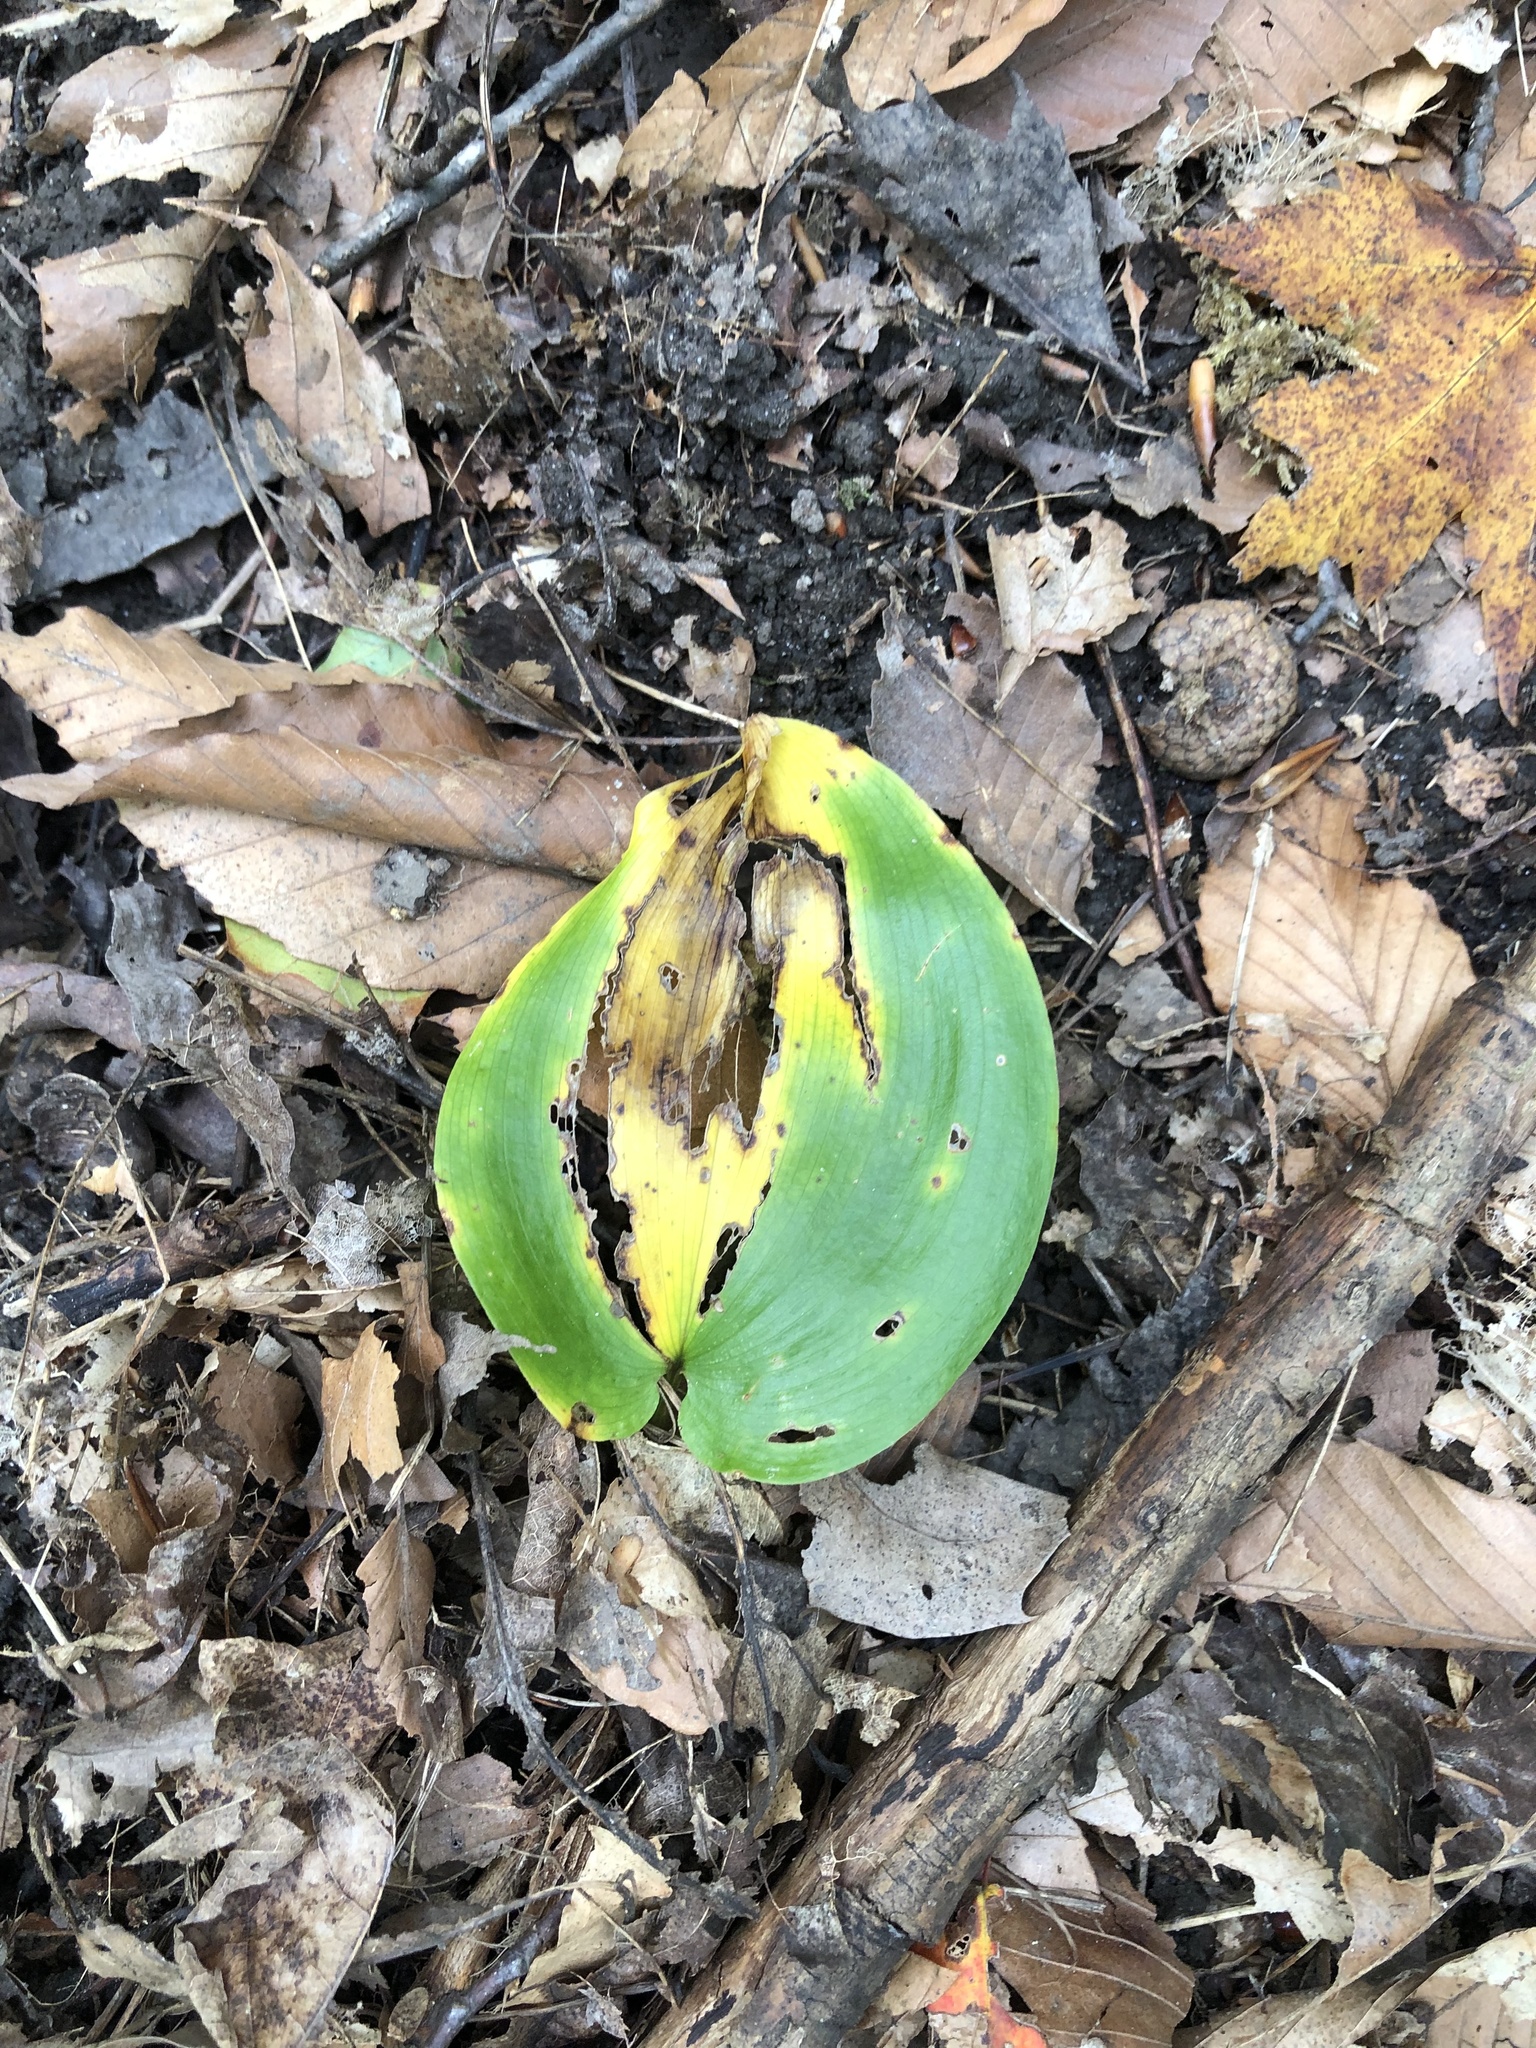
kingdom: Plantae
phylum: Tracheophyta
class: Liliopsida
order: Asparagales
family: Asparagaceae
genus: Maianthemum
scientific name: Maianthemum canadense
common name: False lily-of-the-valley
